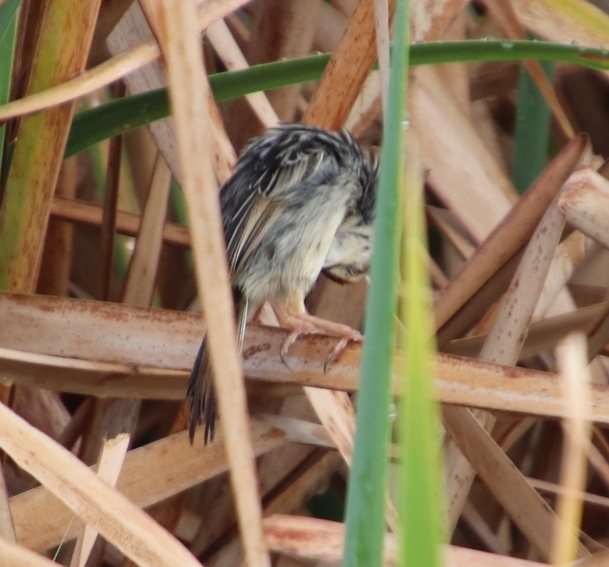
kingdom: Animalia
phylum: Chordata
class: Aves
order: Passeriformes
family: Cisticolidae
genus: Cisticola
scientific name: Cisticola tinniens
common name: Levaillant's cisticola
